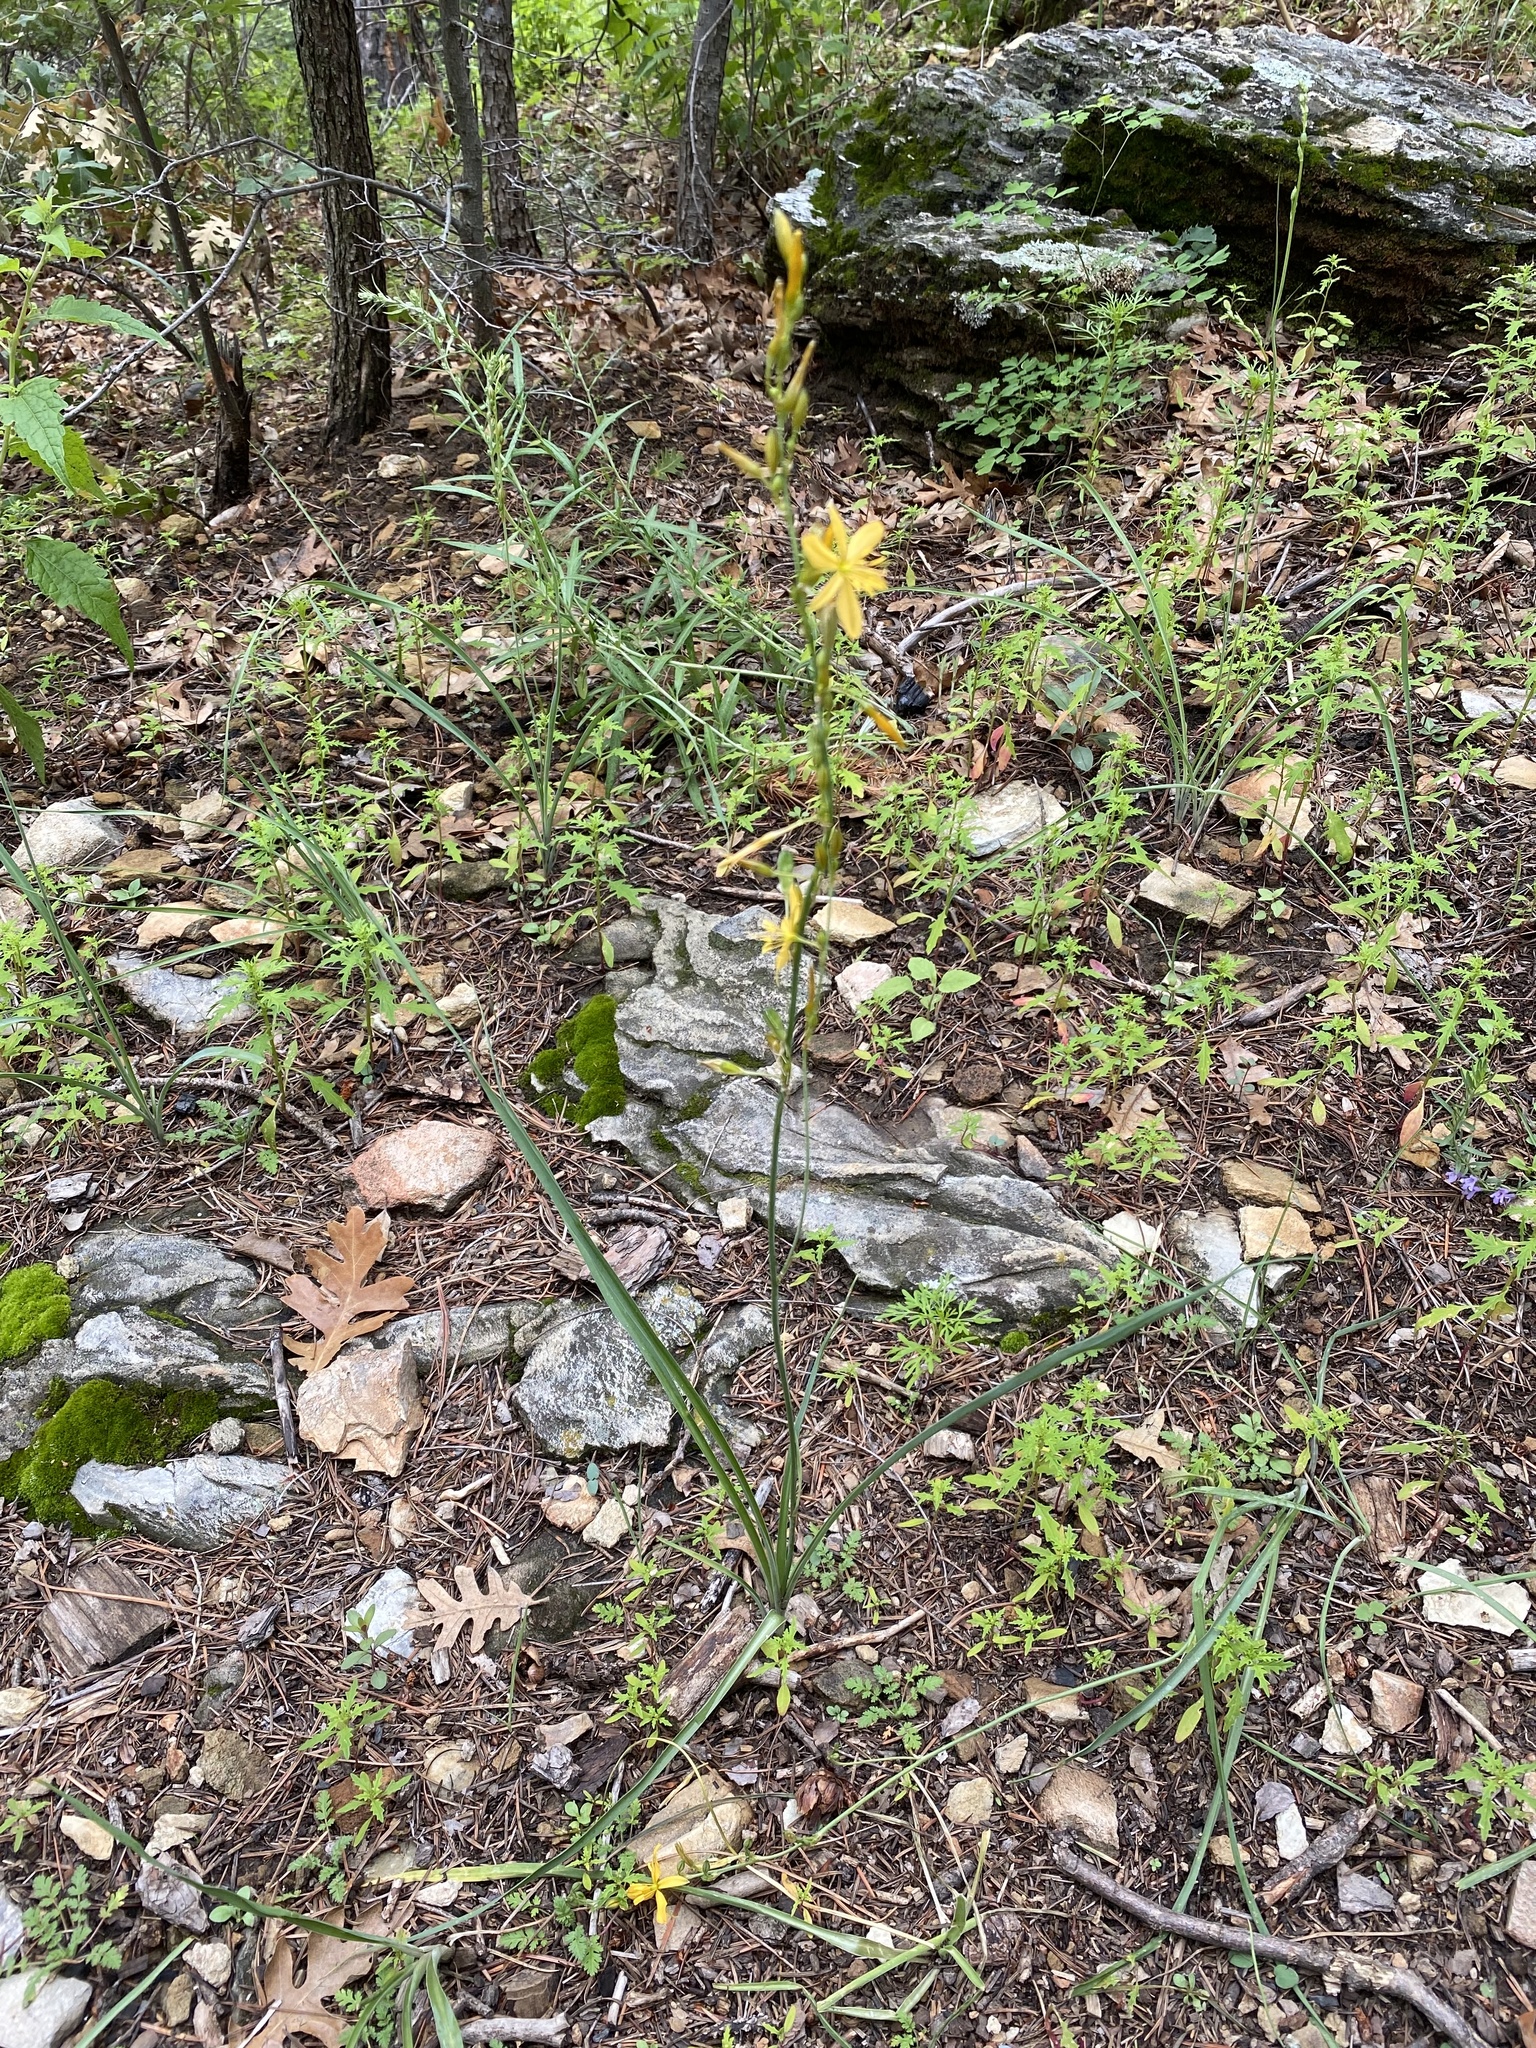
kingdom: Plantae
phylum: Tracheophyta
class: Liliopsida
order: Asparagales
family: Asparagaceae
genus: Echeandia
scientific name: Echeandia flavescens
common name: Amberlily
